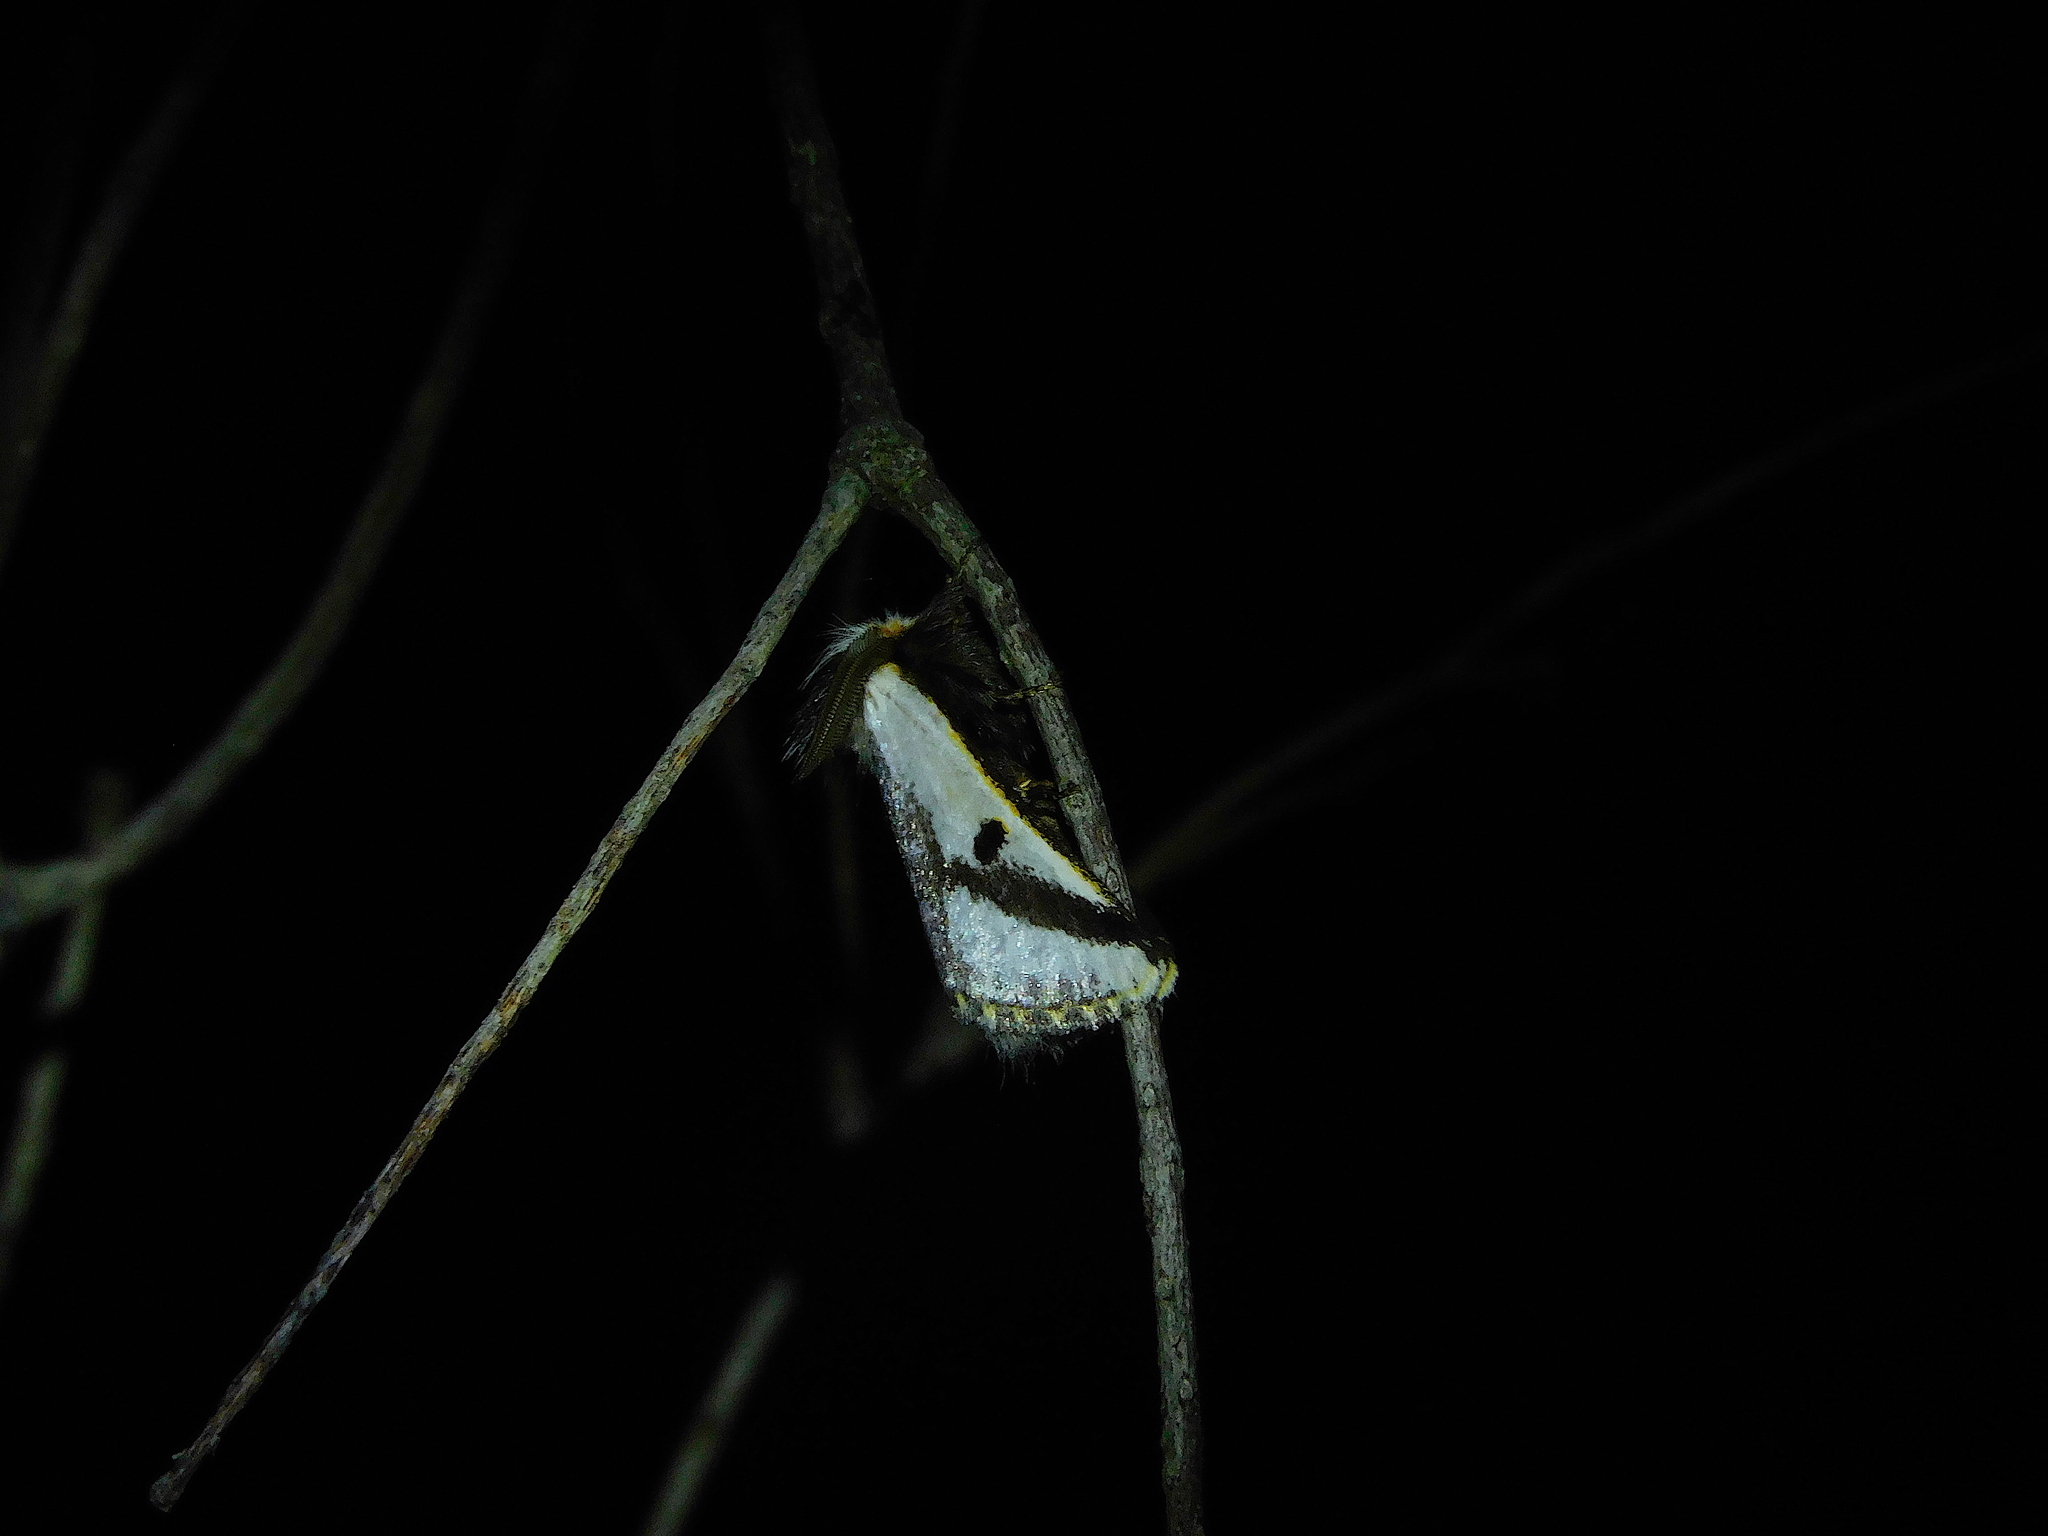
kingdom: Animalia
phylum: Arthropoda
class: Insecta
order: Lepidoptera
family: Notodontidae
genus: Epicoma
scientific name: Epicoma melanospila
